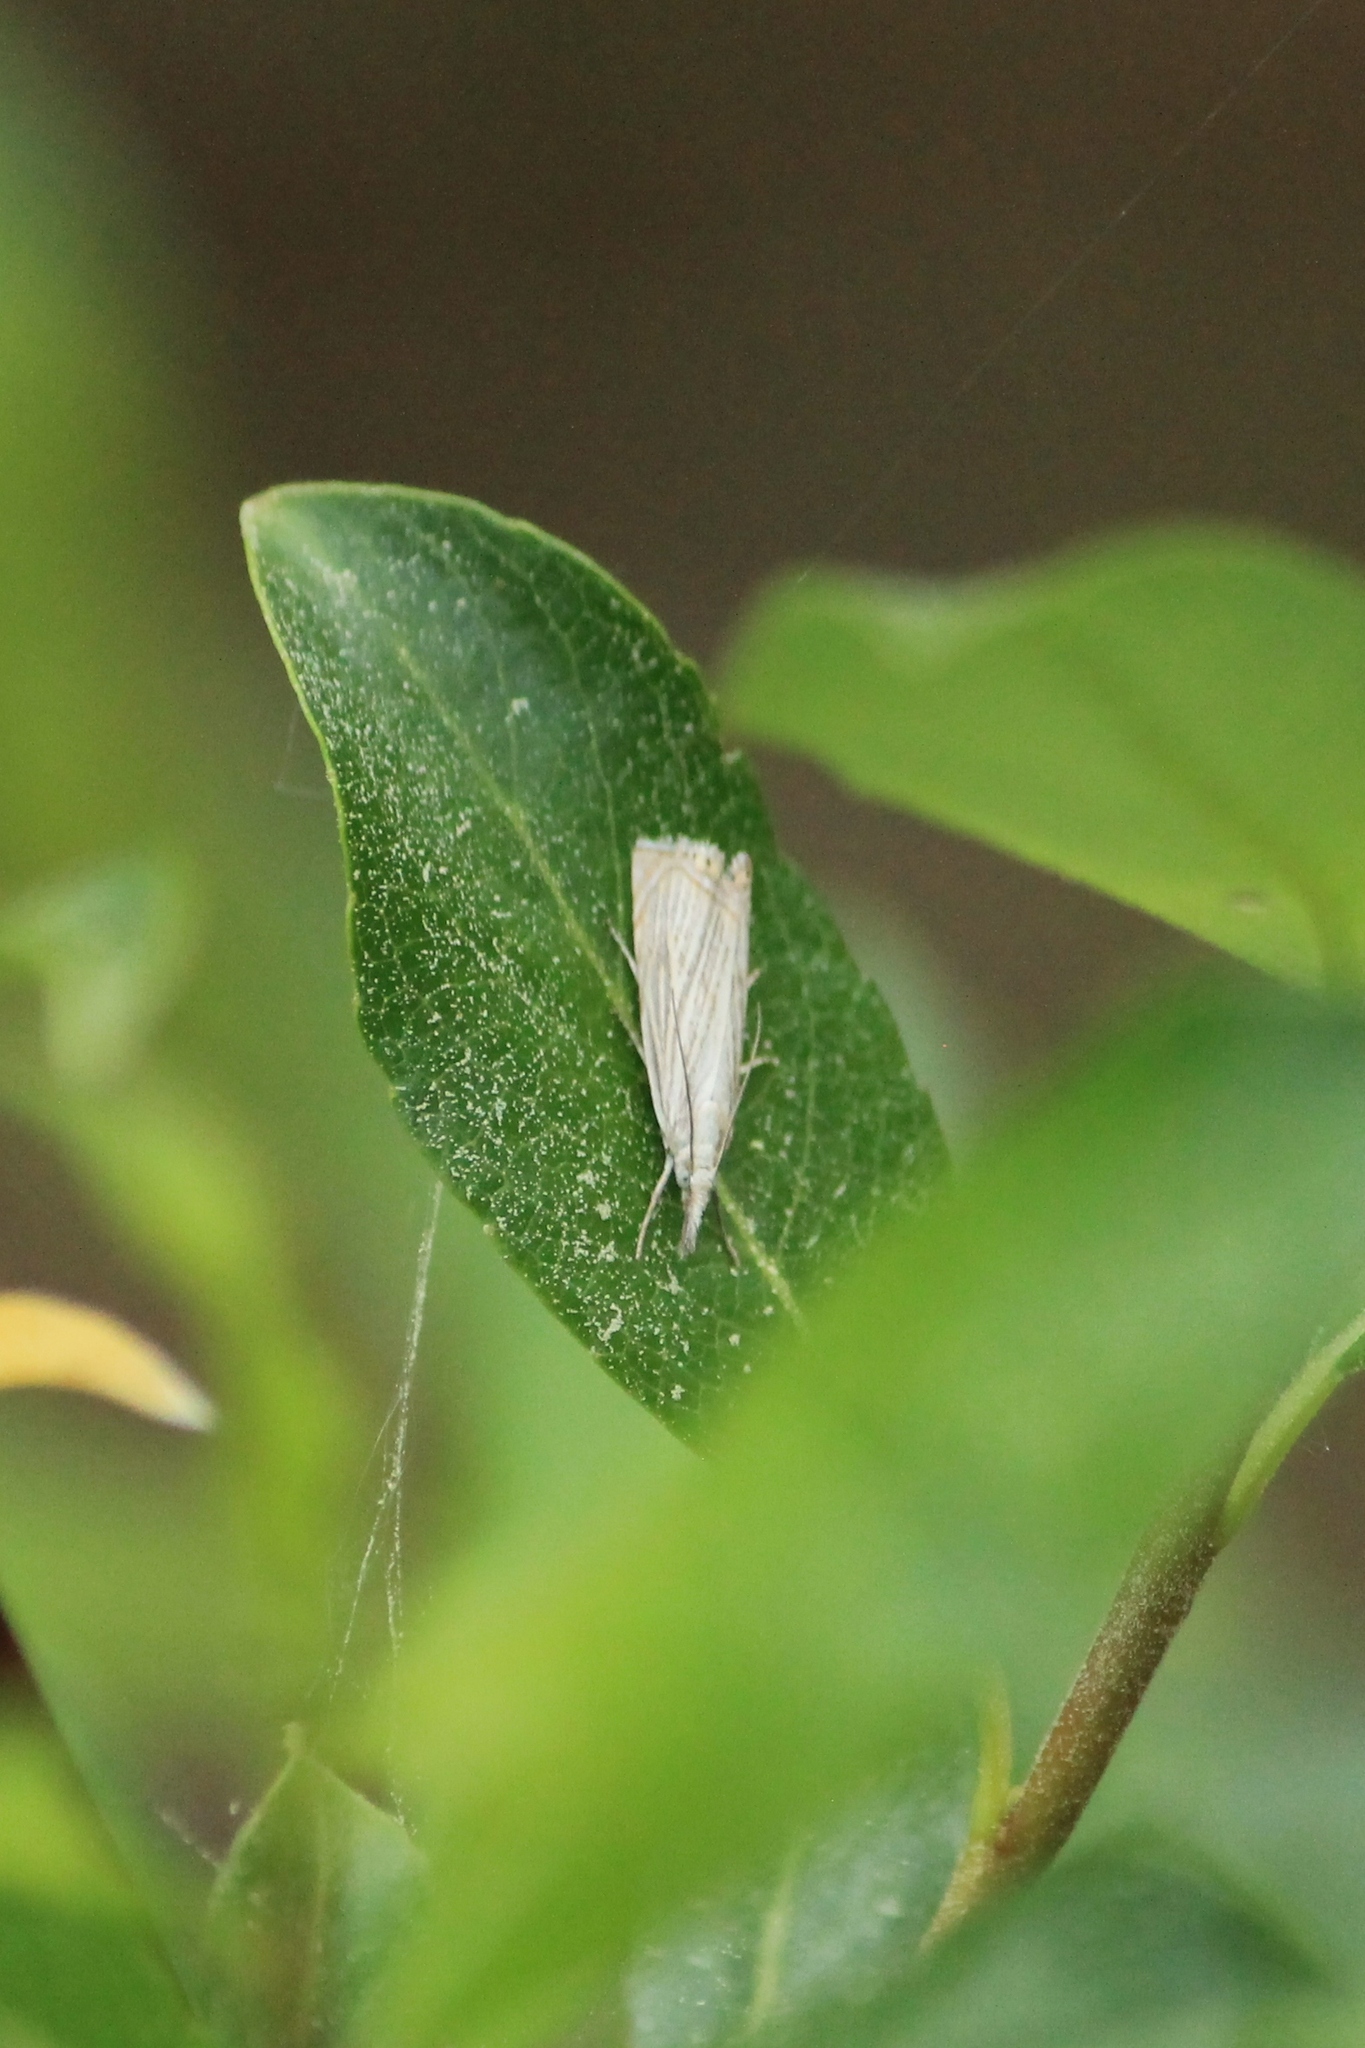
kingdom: Animalia
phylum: Arthropoda
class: Insecta
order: Lepidoptera
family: Crambidae
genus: Chrysoteuchia
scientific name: Chrysoteuchia culmella
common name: Garden grass-veneer
